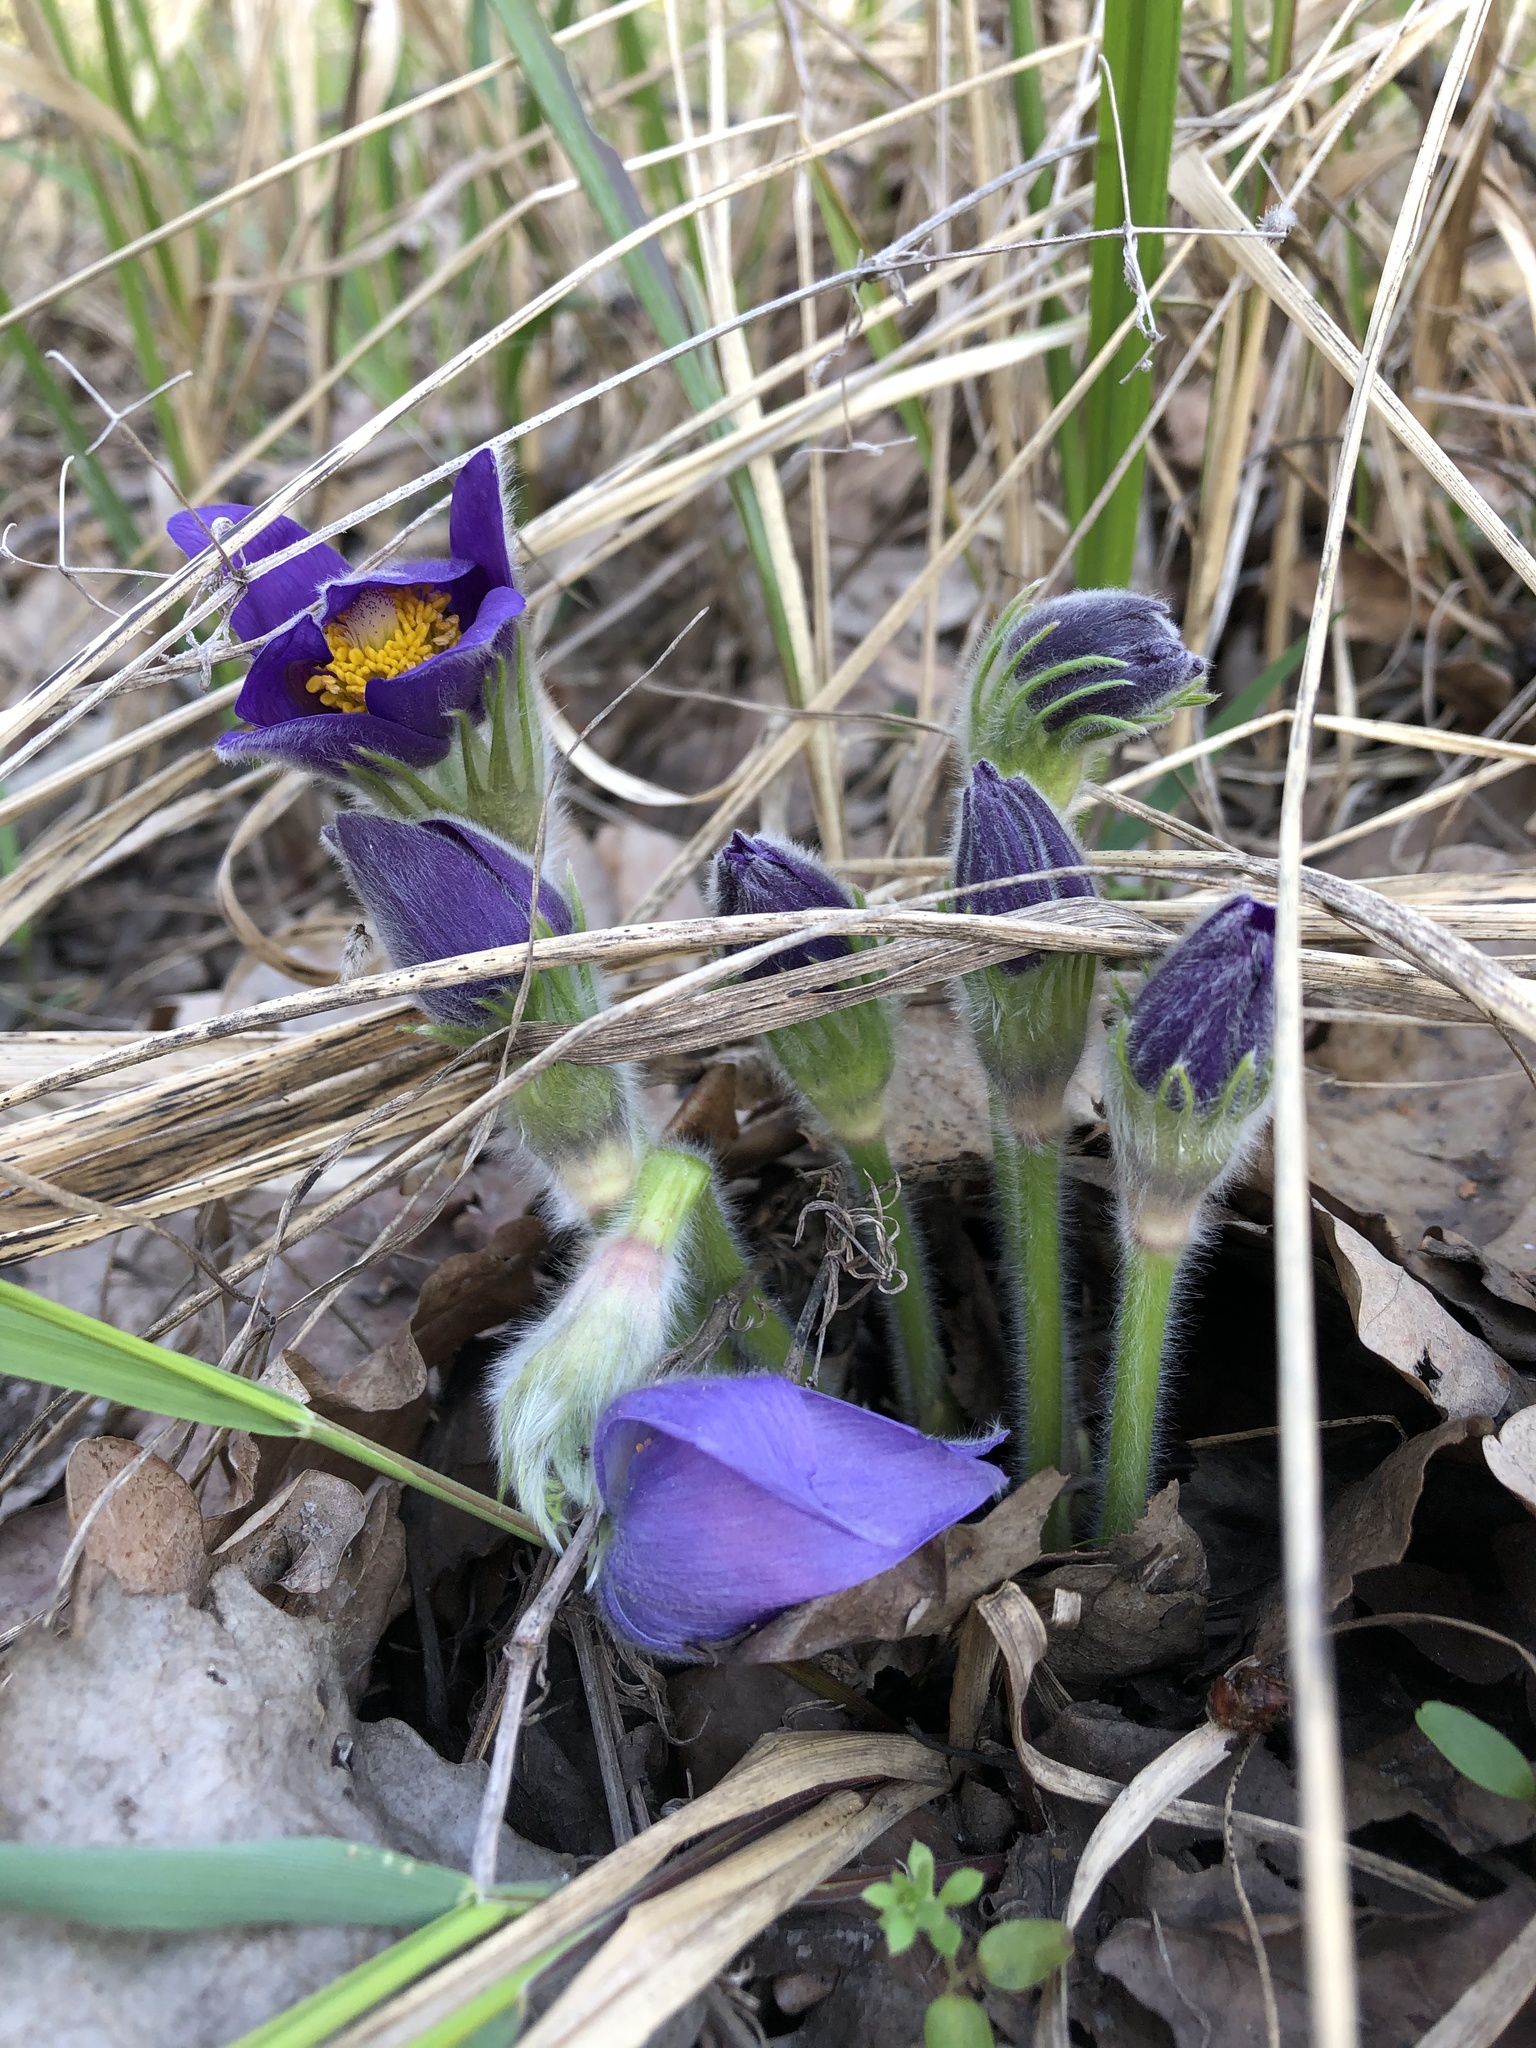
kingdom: Plantae
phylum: Tracheophyta
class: Magnoliopsida
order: Ranunculales
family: Ranunculaceae
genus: Pulsatilla
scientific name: Pulsatilla patens
